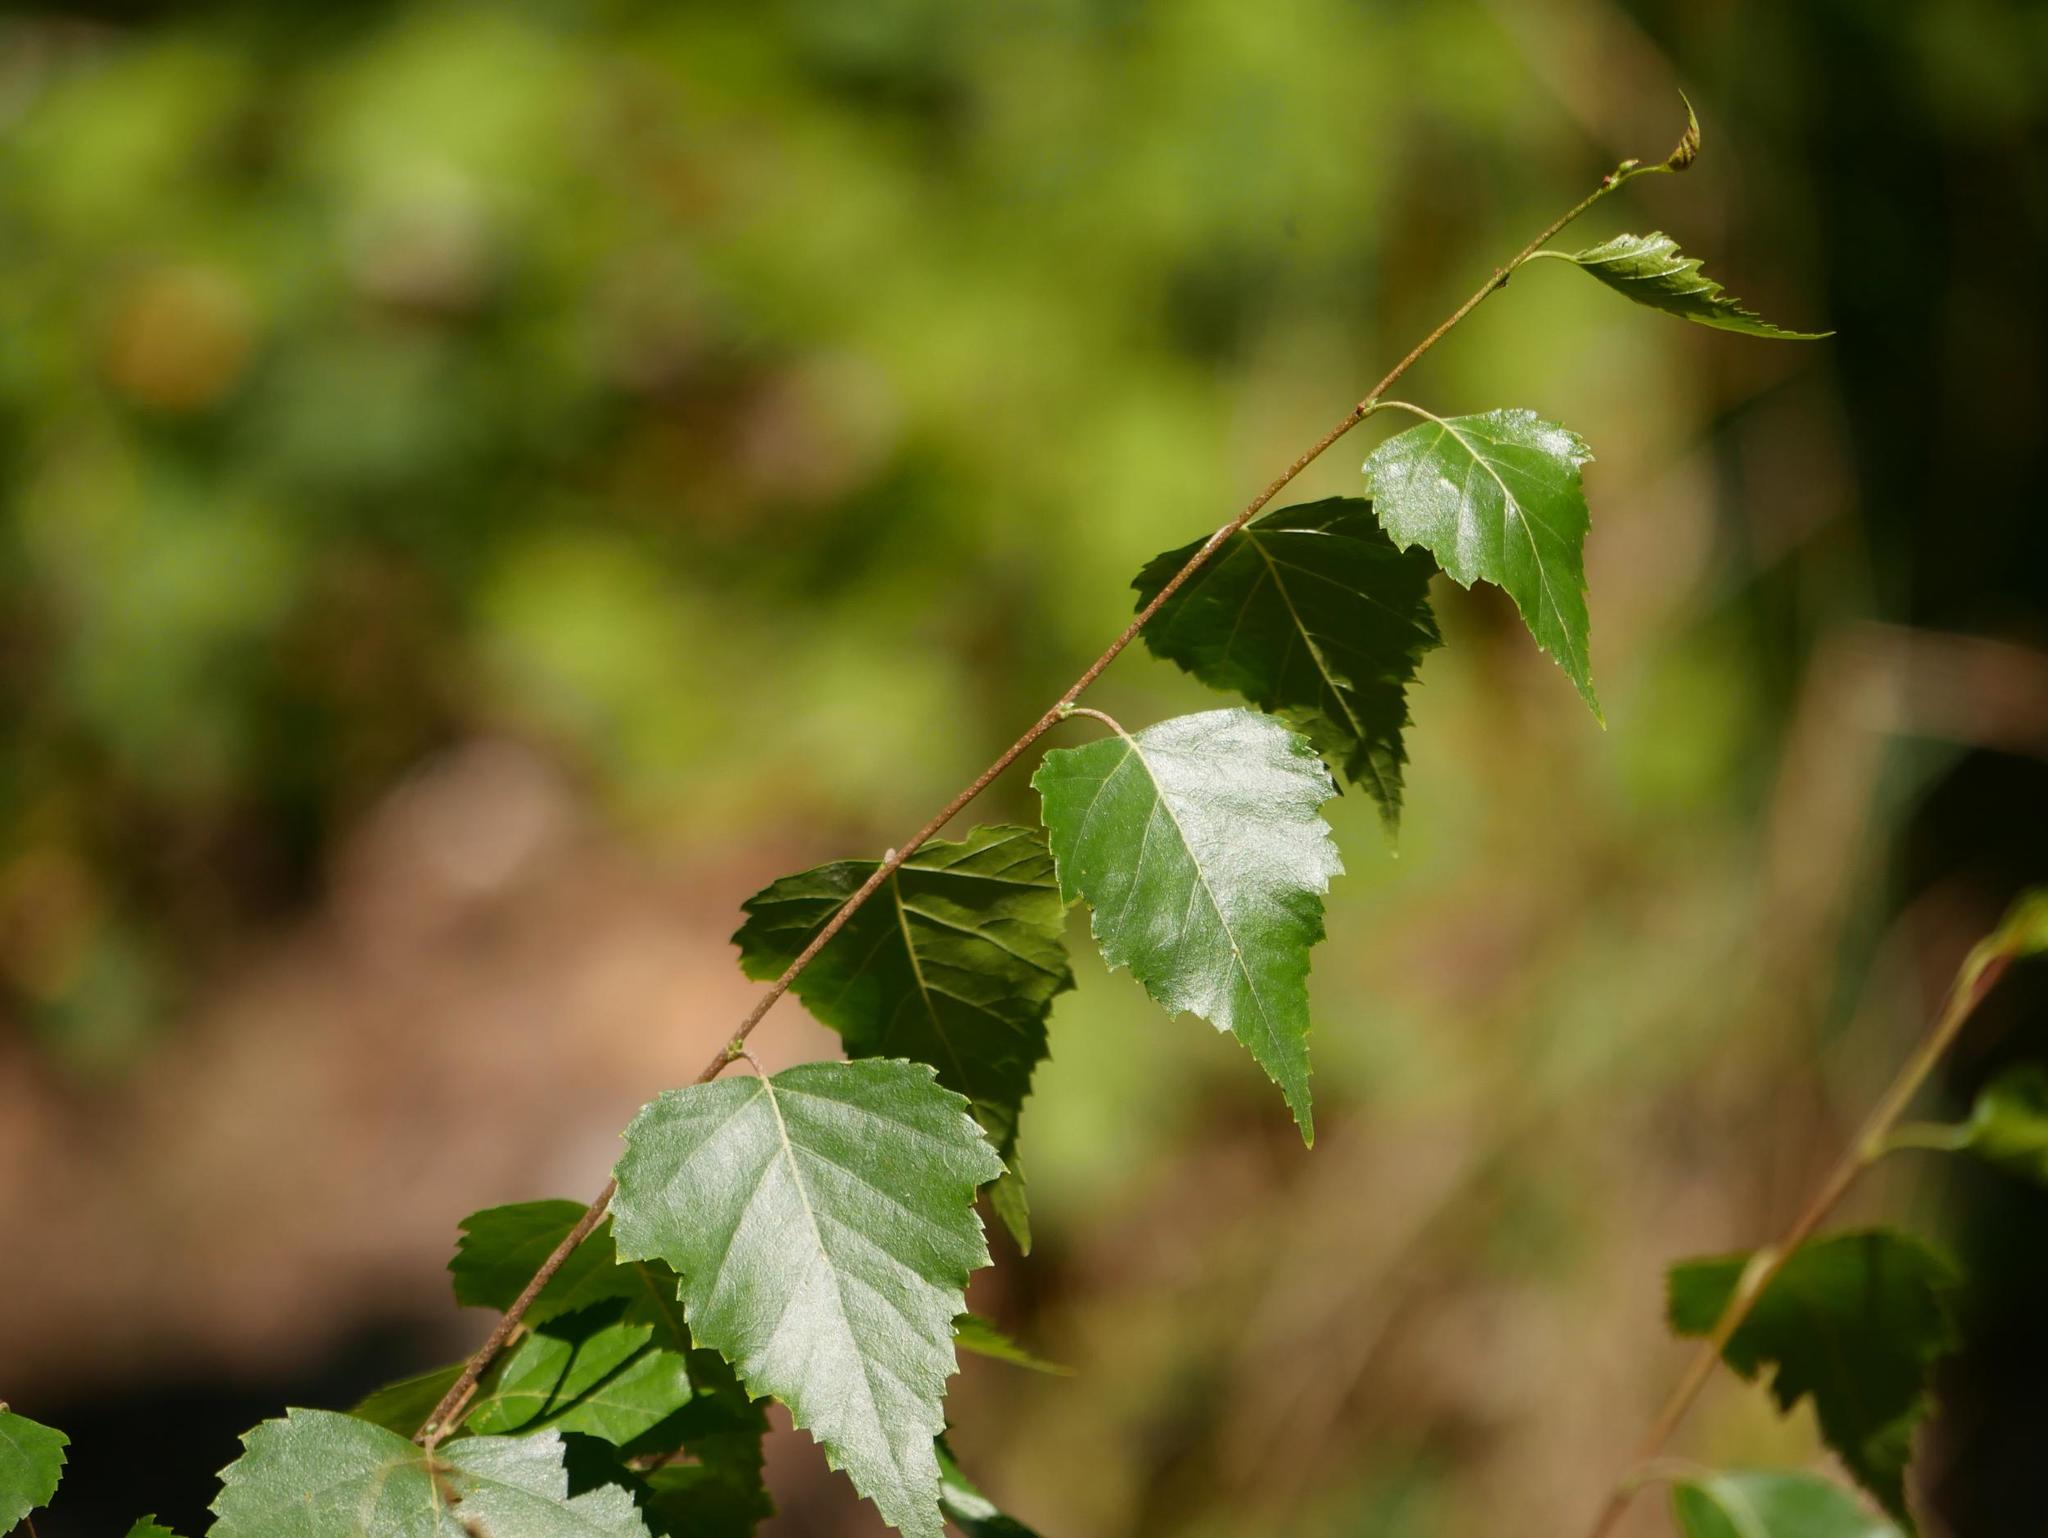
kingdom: Plantae
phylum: Tracheophyta
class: Magnoliopsida
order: Fagales
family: Betulaceae
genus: Betula
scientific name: Betula pendula
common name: Silver birch
